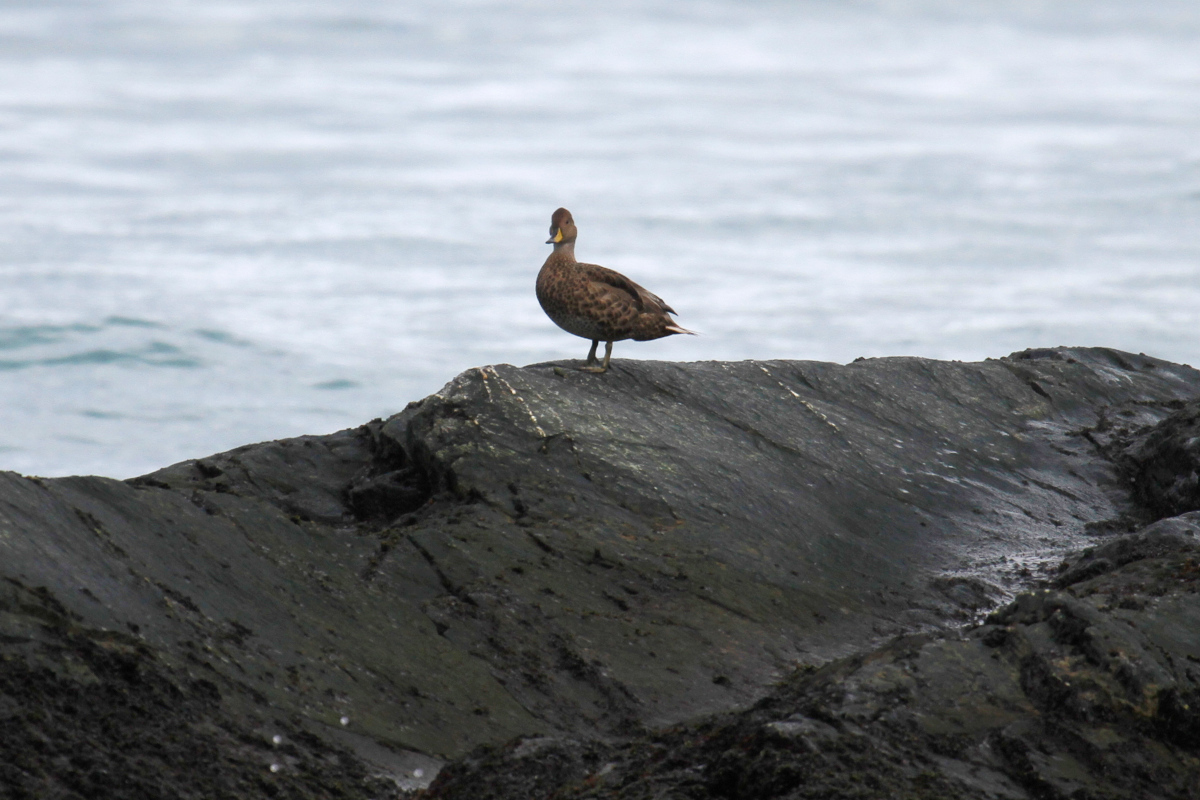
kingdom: Animalia
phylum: Chordata
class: Aves
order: Anseriformes
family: Anatidae
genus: Anas
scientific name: Anas georgica
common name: Yellow-billed pintail
